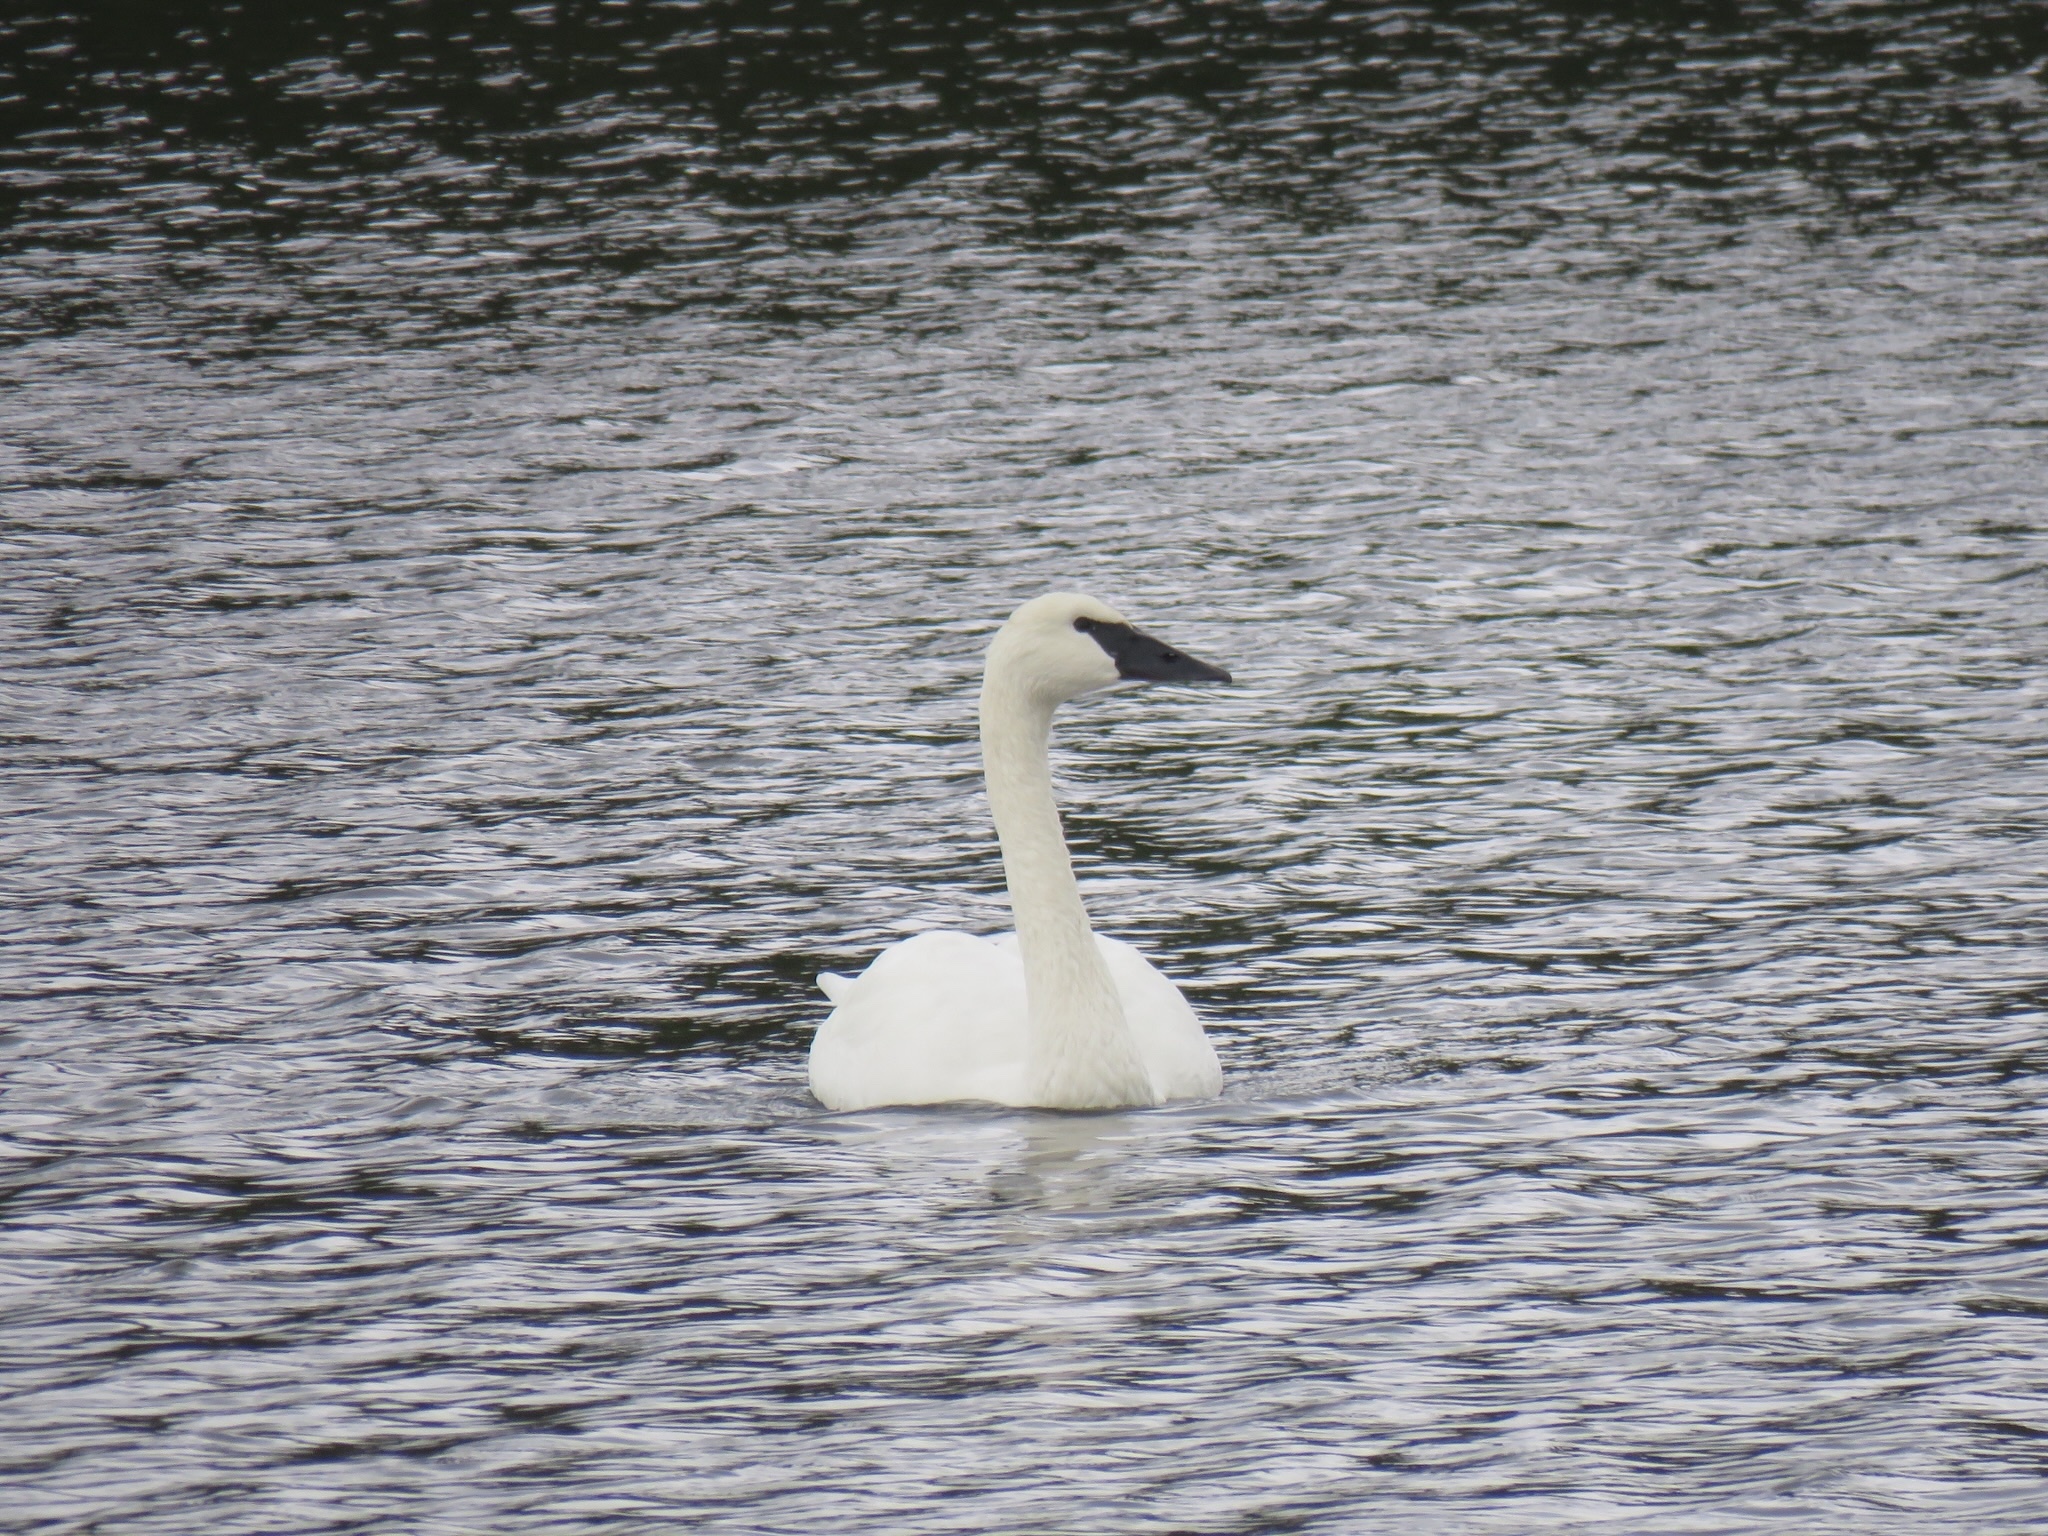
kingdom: Animalia
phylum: Chordata
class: Aves
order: Anseriformes
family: Anatidae
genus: Cygnus
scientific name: Cygnus buccinator
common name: Trumpeter swan
